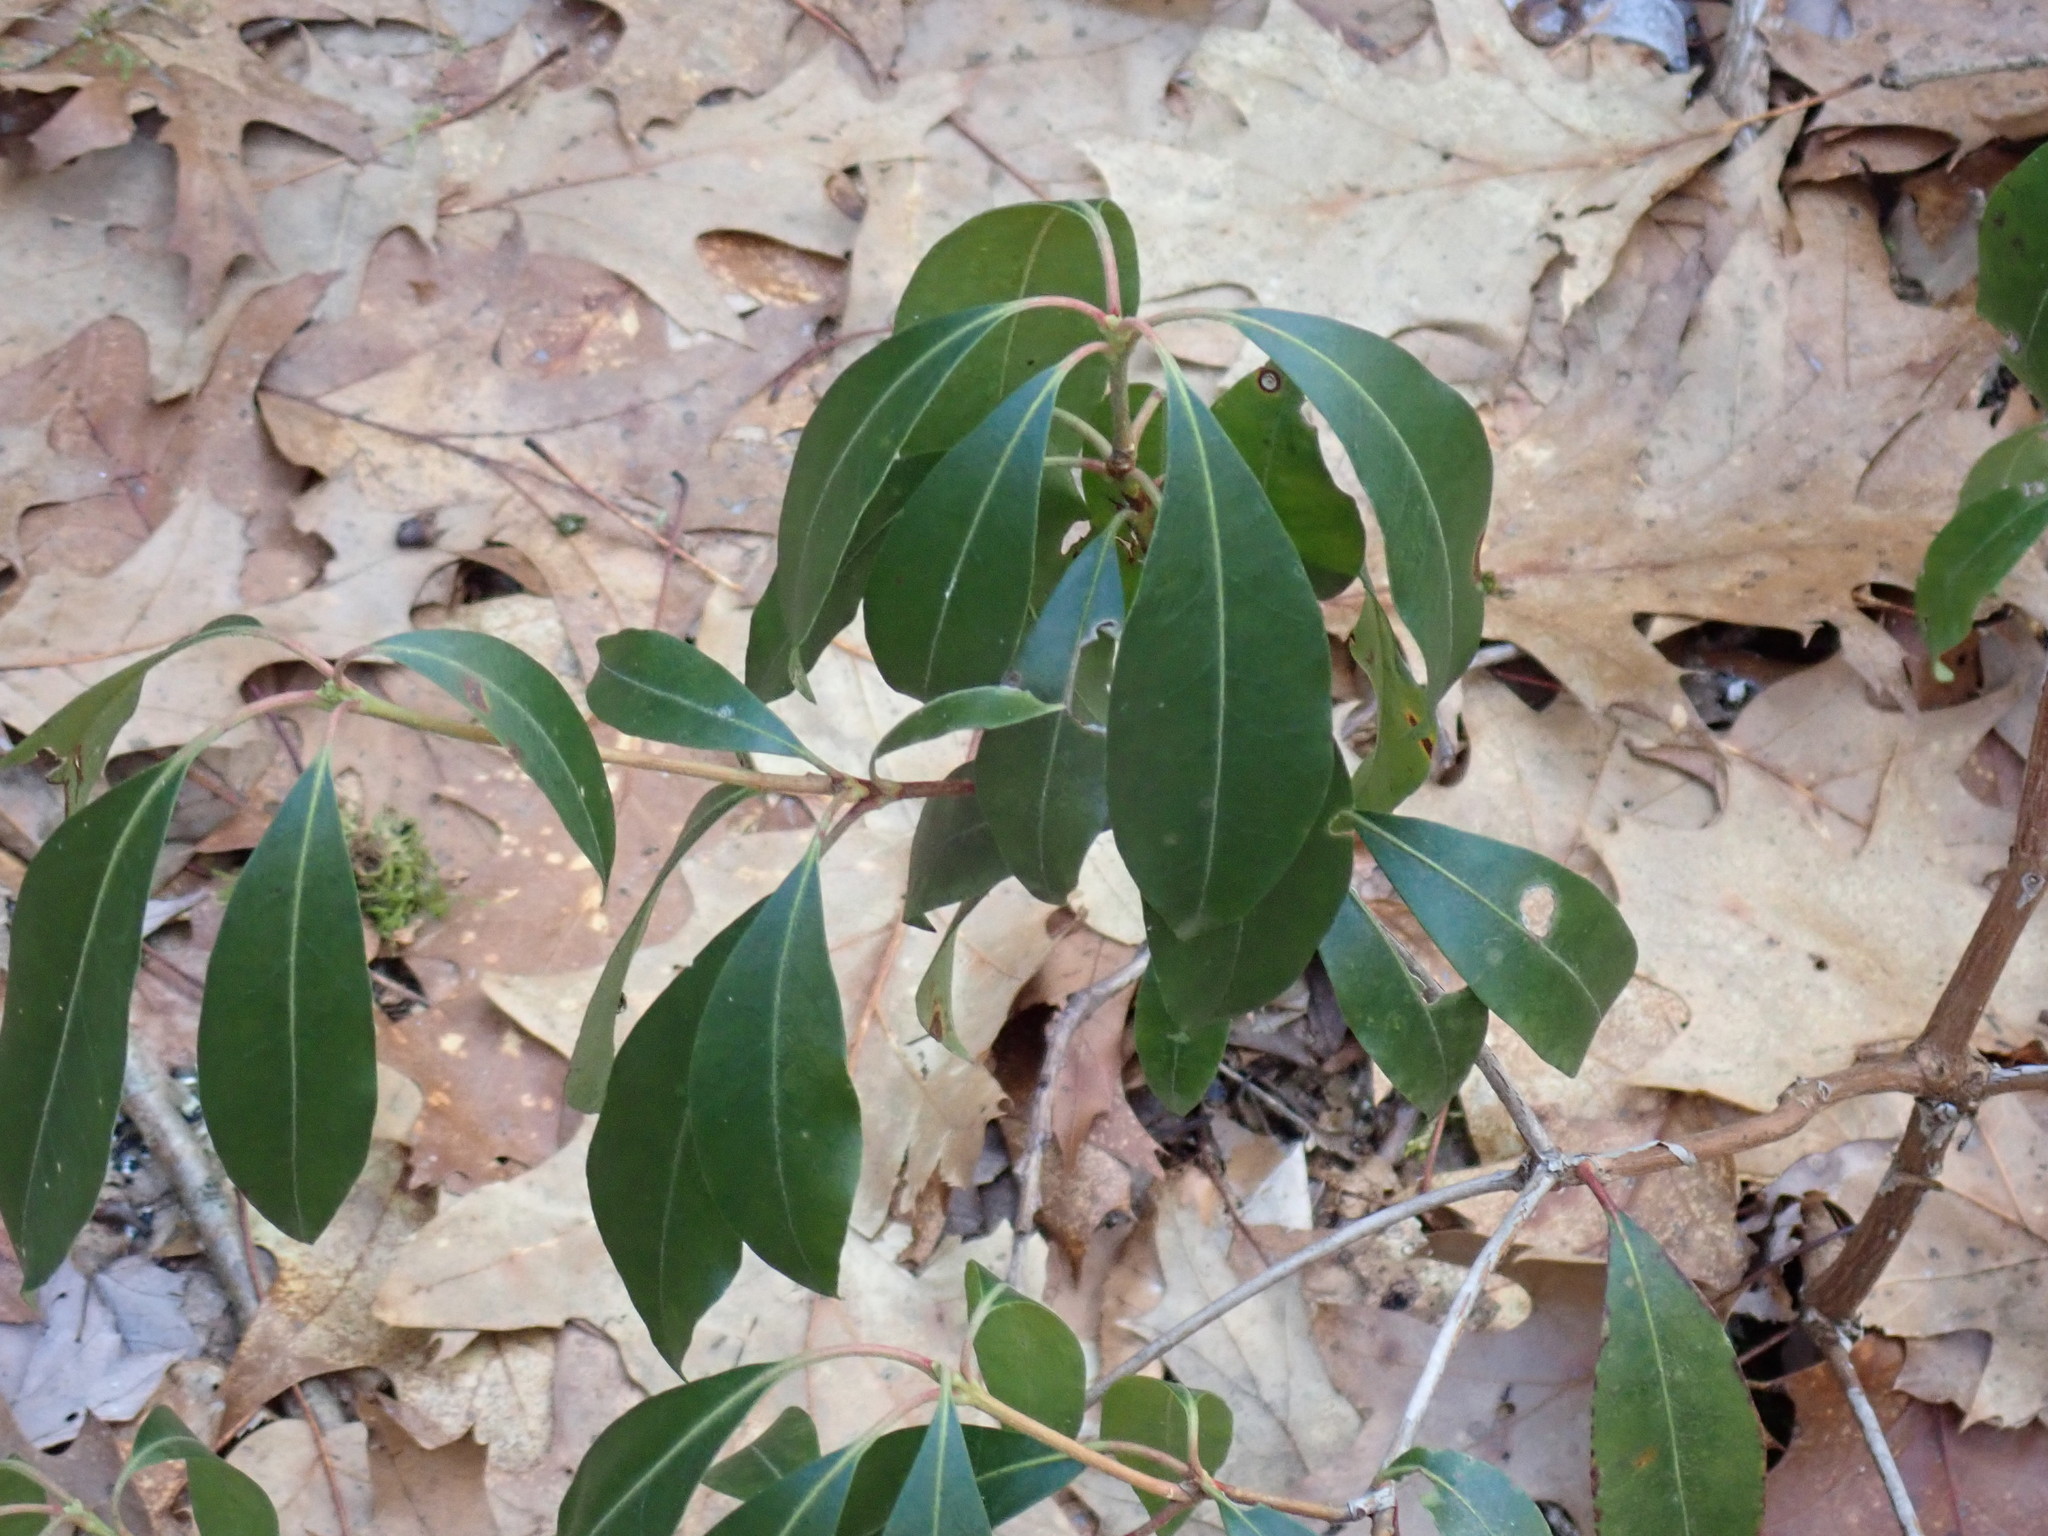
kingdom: Plantae
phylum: Tracheophyta
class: Magnoliopsida
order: Ericales
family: Ericaceae
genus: Kalmia
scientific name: Kalmia latifolia
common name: Mountain-laurel
